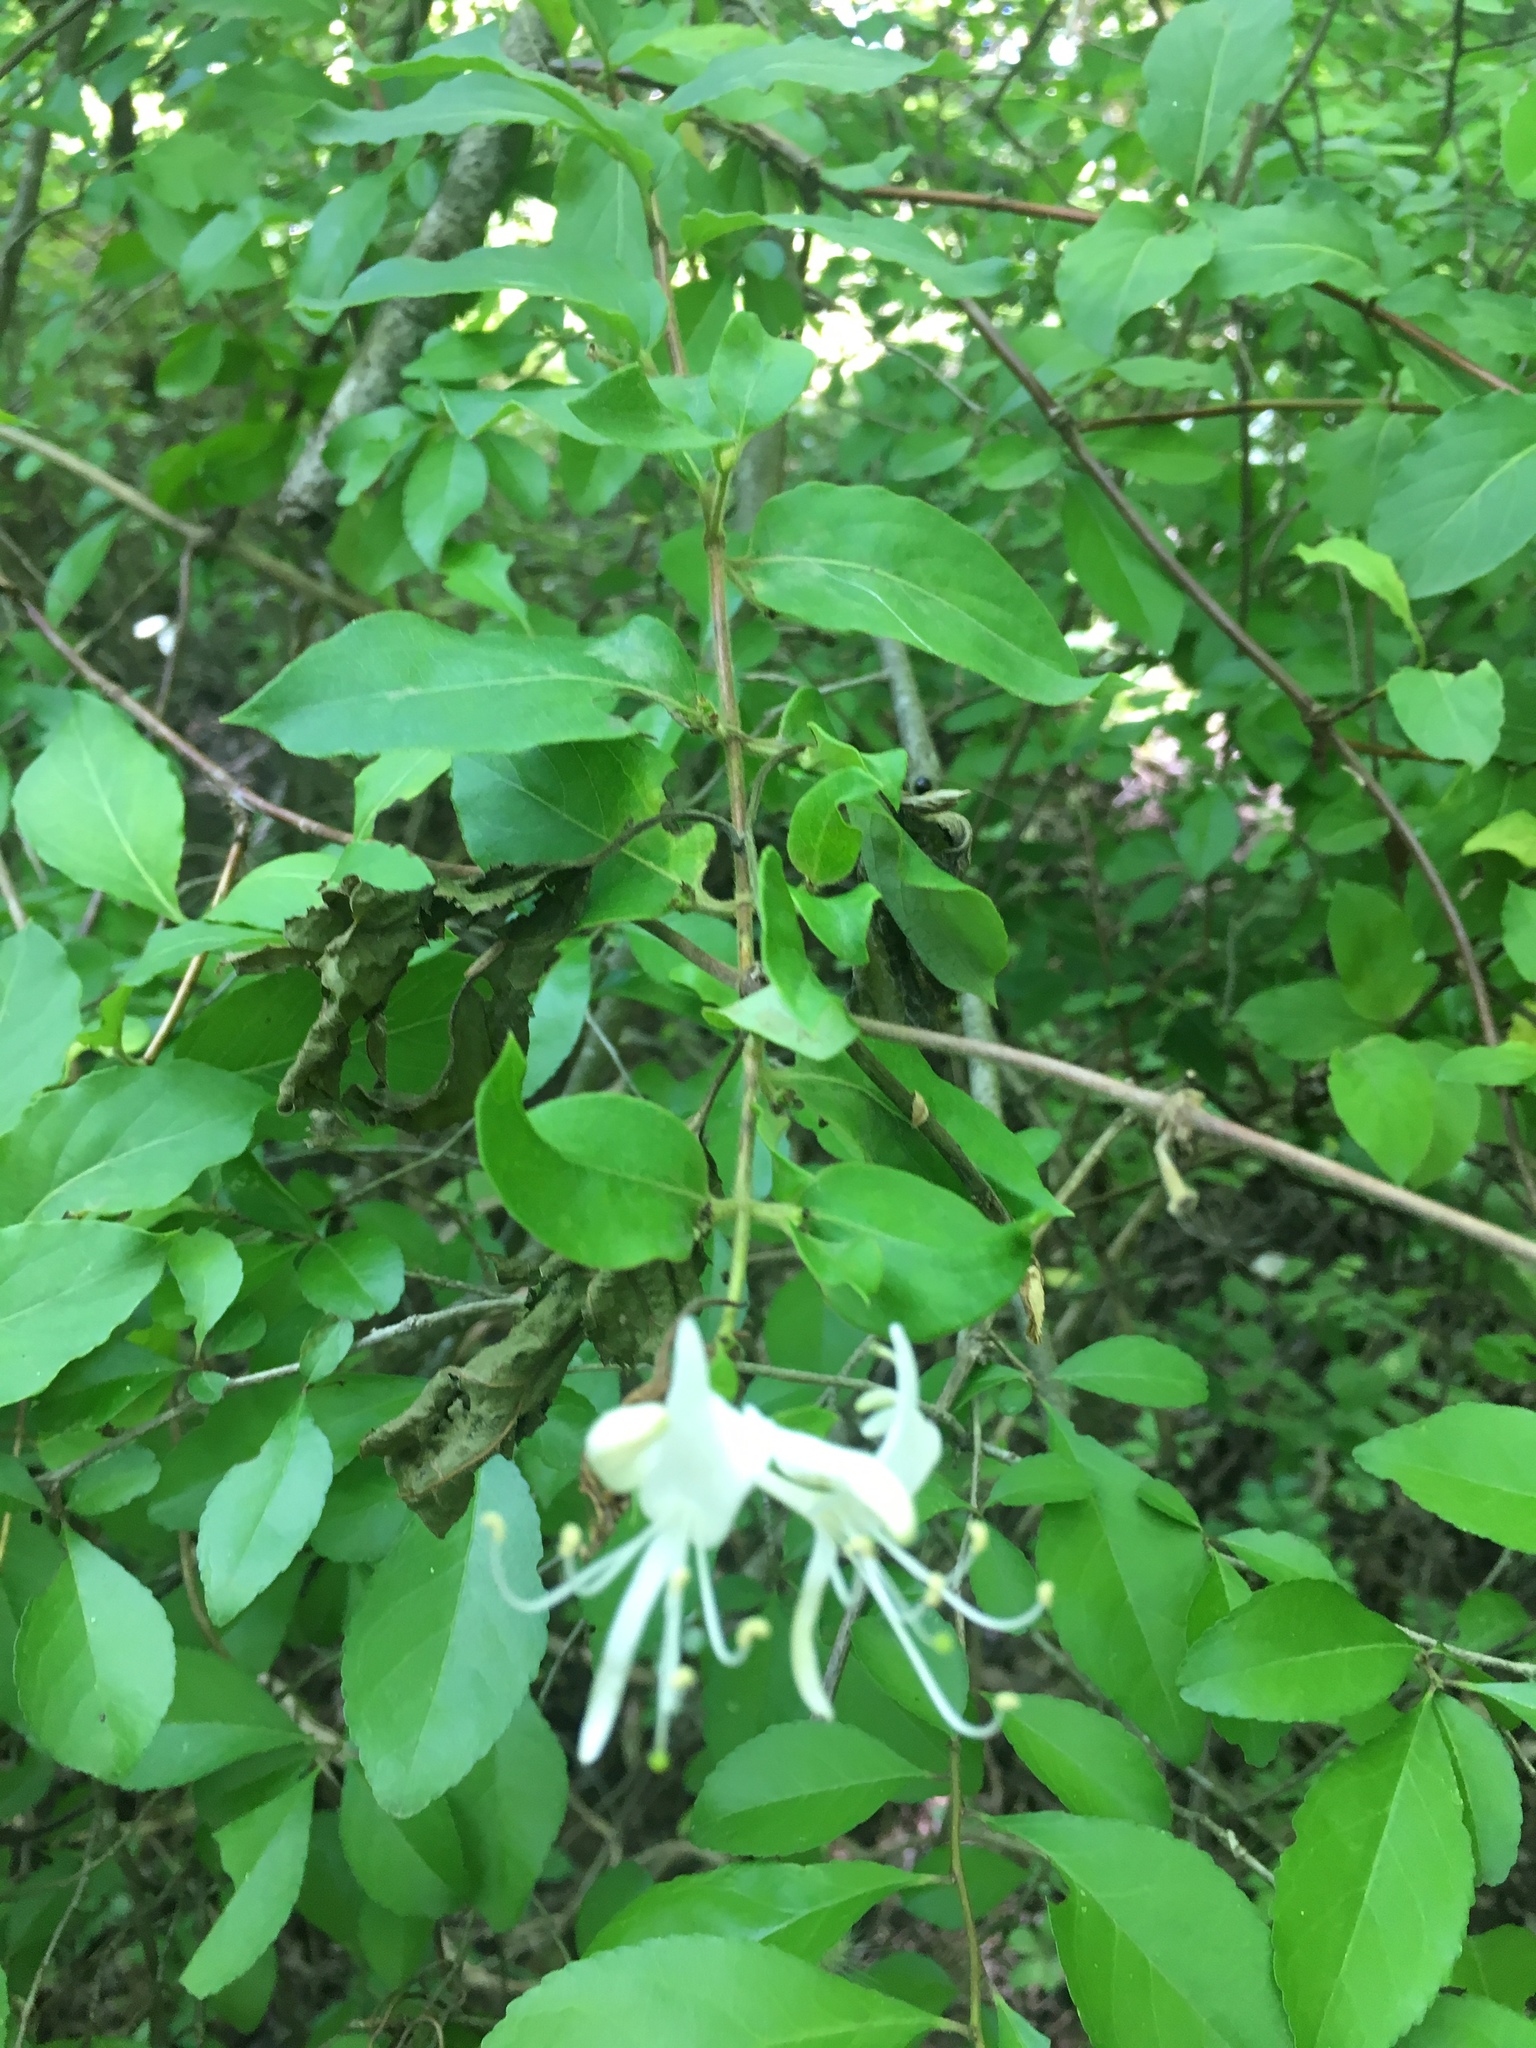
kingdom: Plantae
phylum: Tracheophyta
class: Magnoliopsida
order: Dipsacales
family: Caprifoliaceae
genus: Lonicera
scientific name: Lonicera japonica
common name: Japanese honeysuckle
